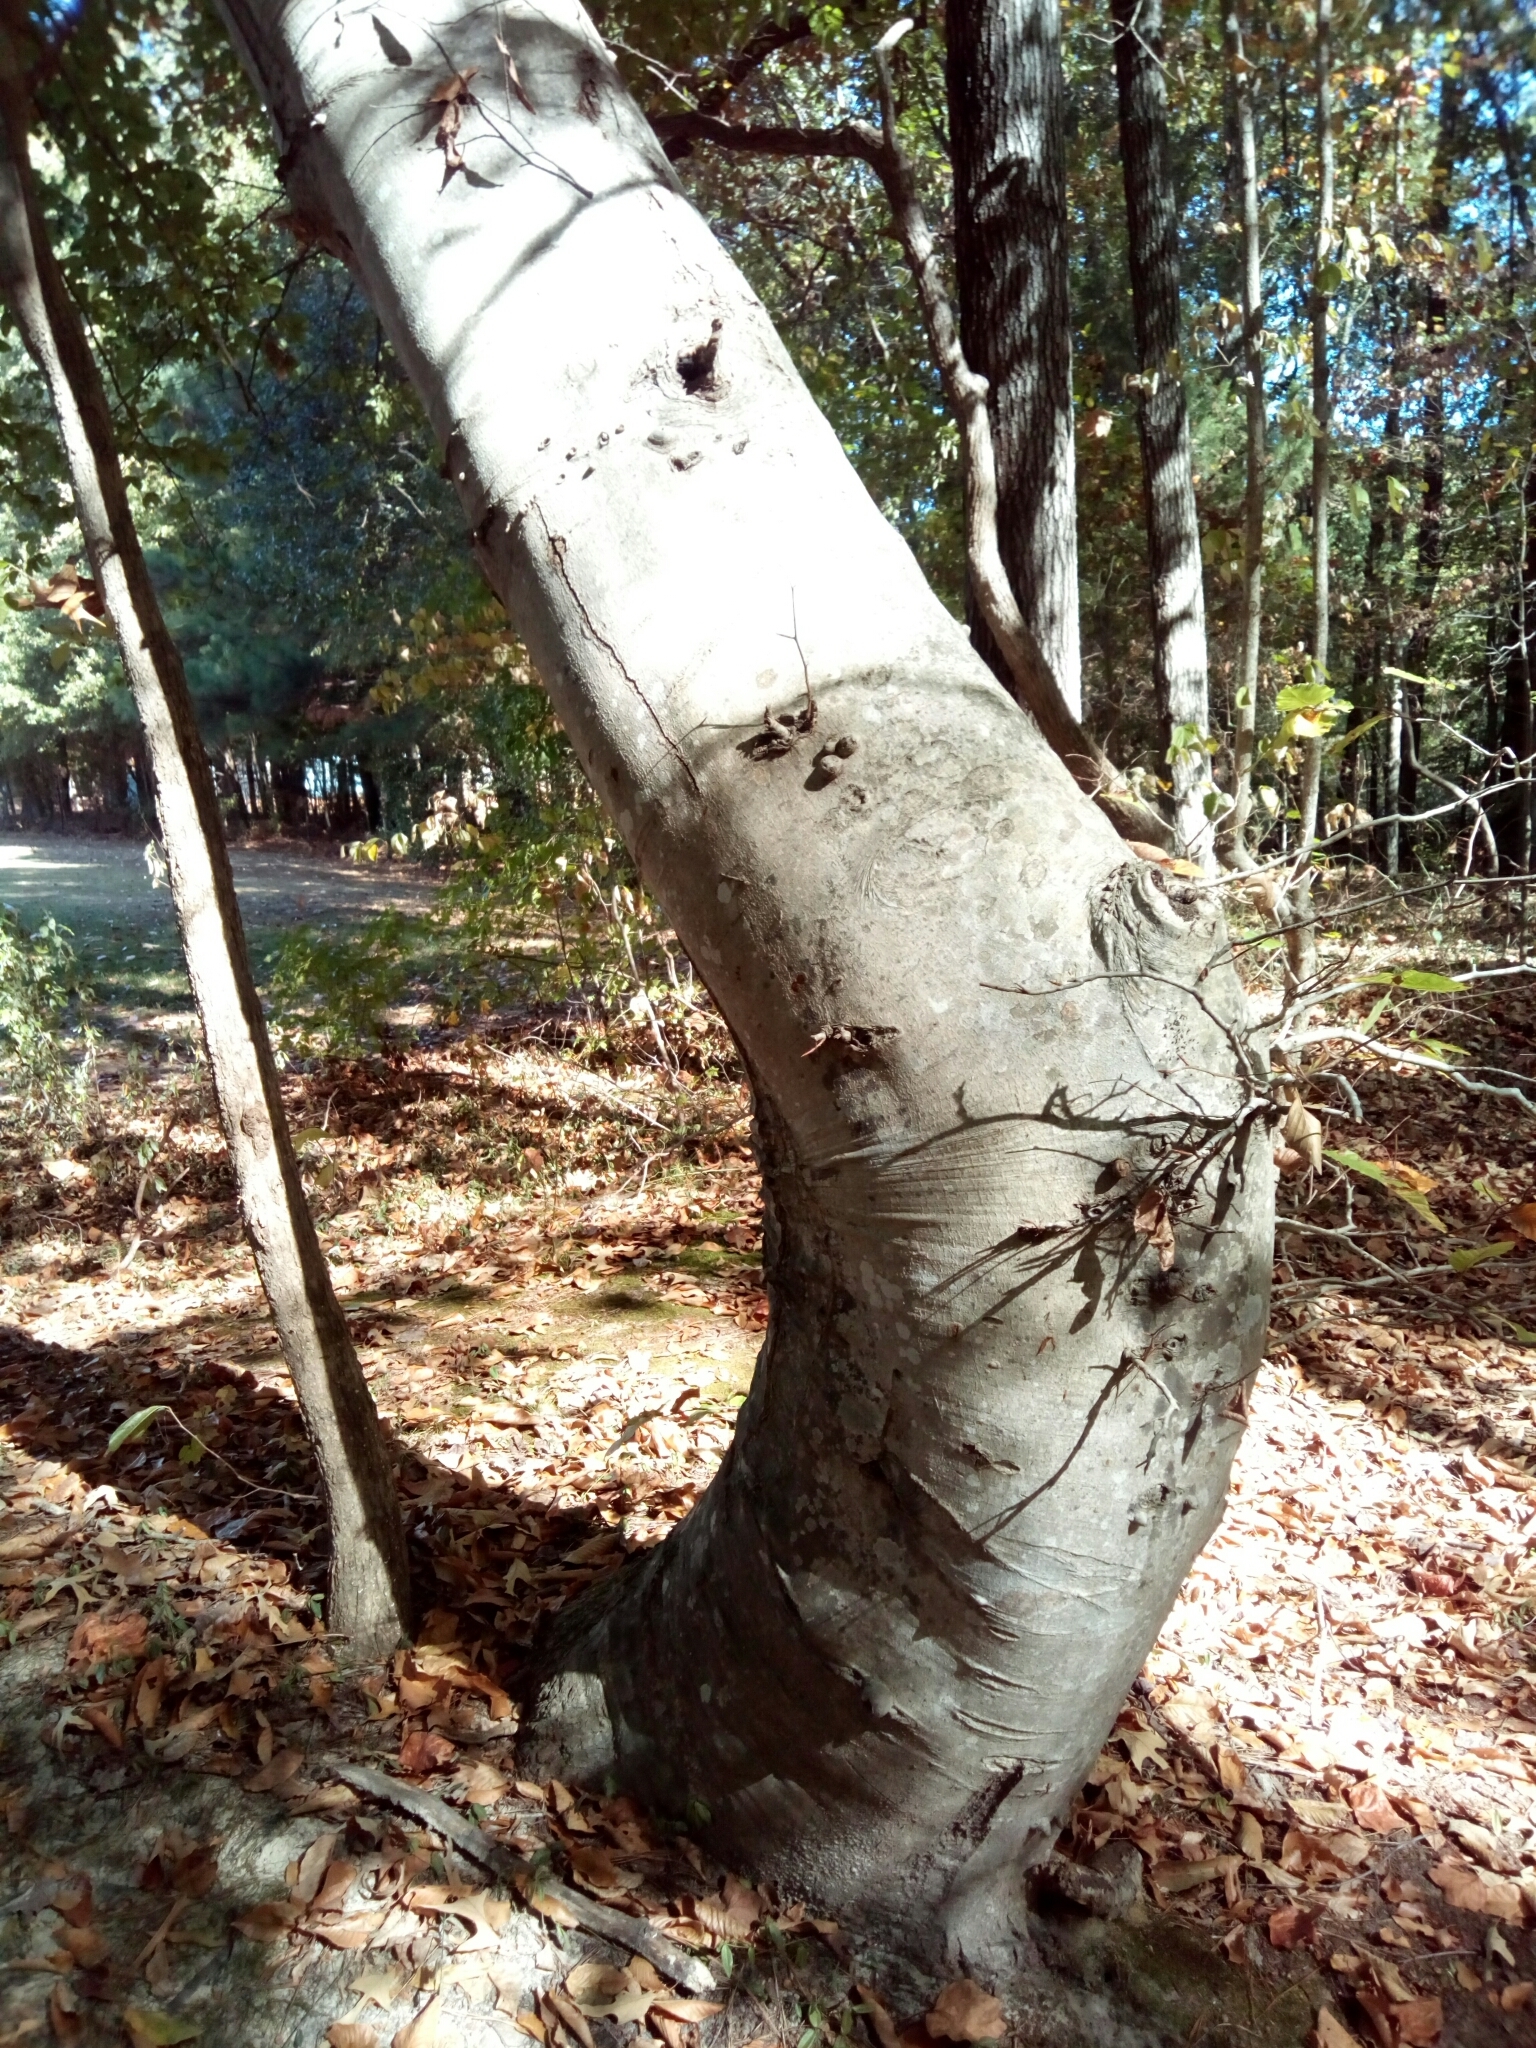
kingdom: Plantae
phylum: Tracheophyta
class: Magnoliopsida
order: Fagales
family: Fagaceae
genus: Fagus
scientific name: Fagus grandifolia
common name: American beech
